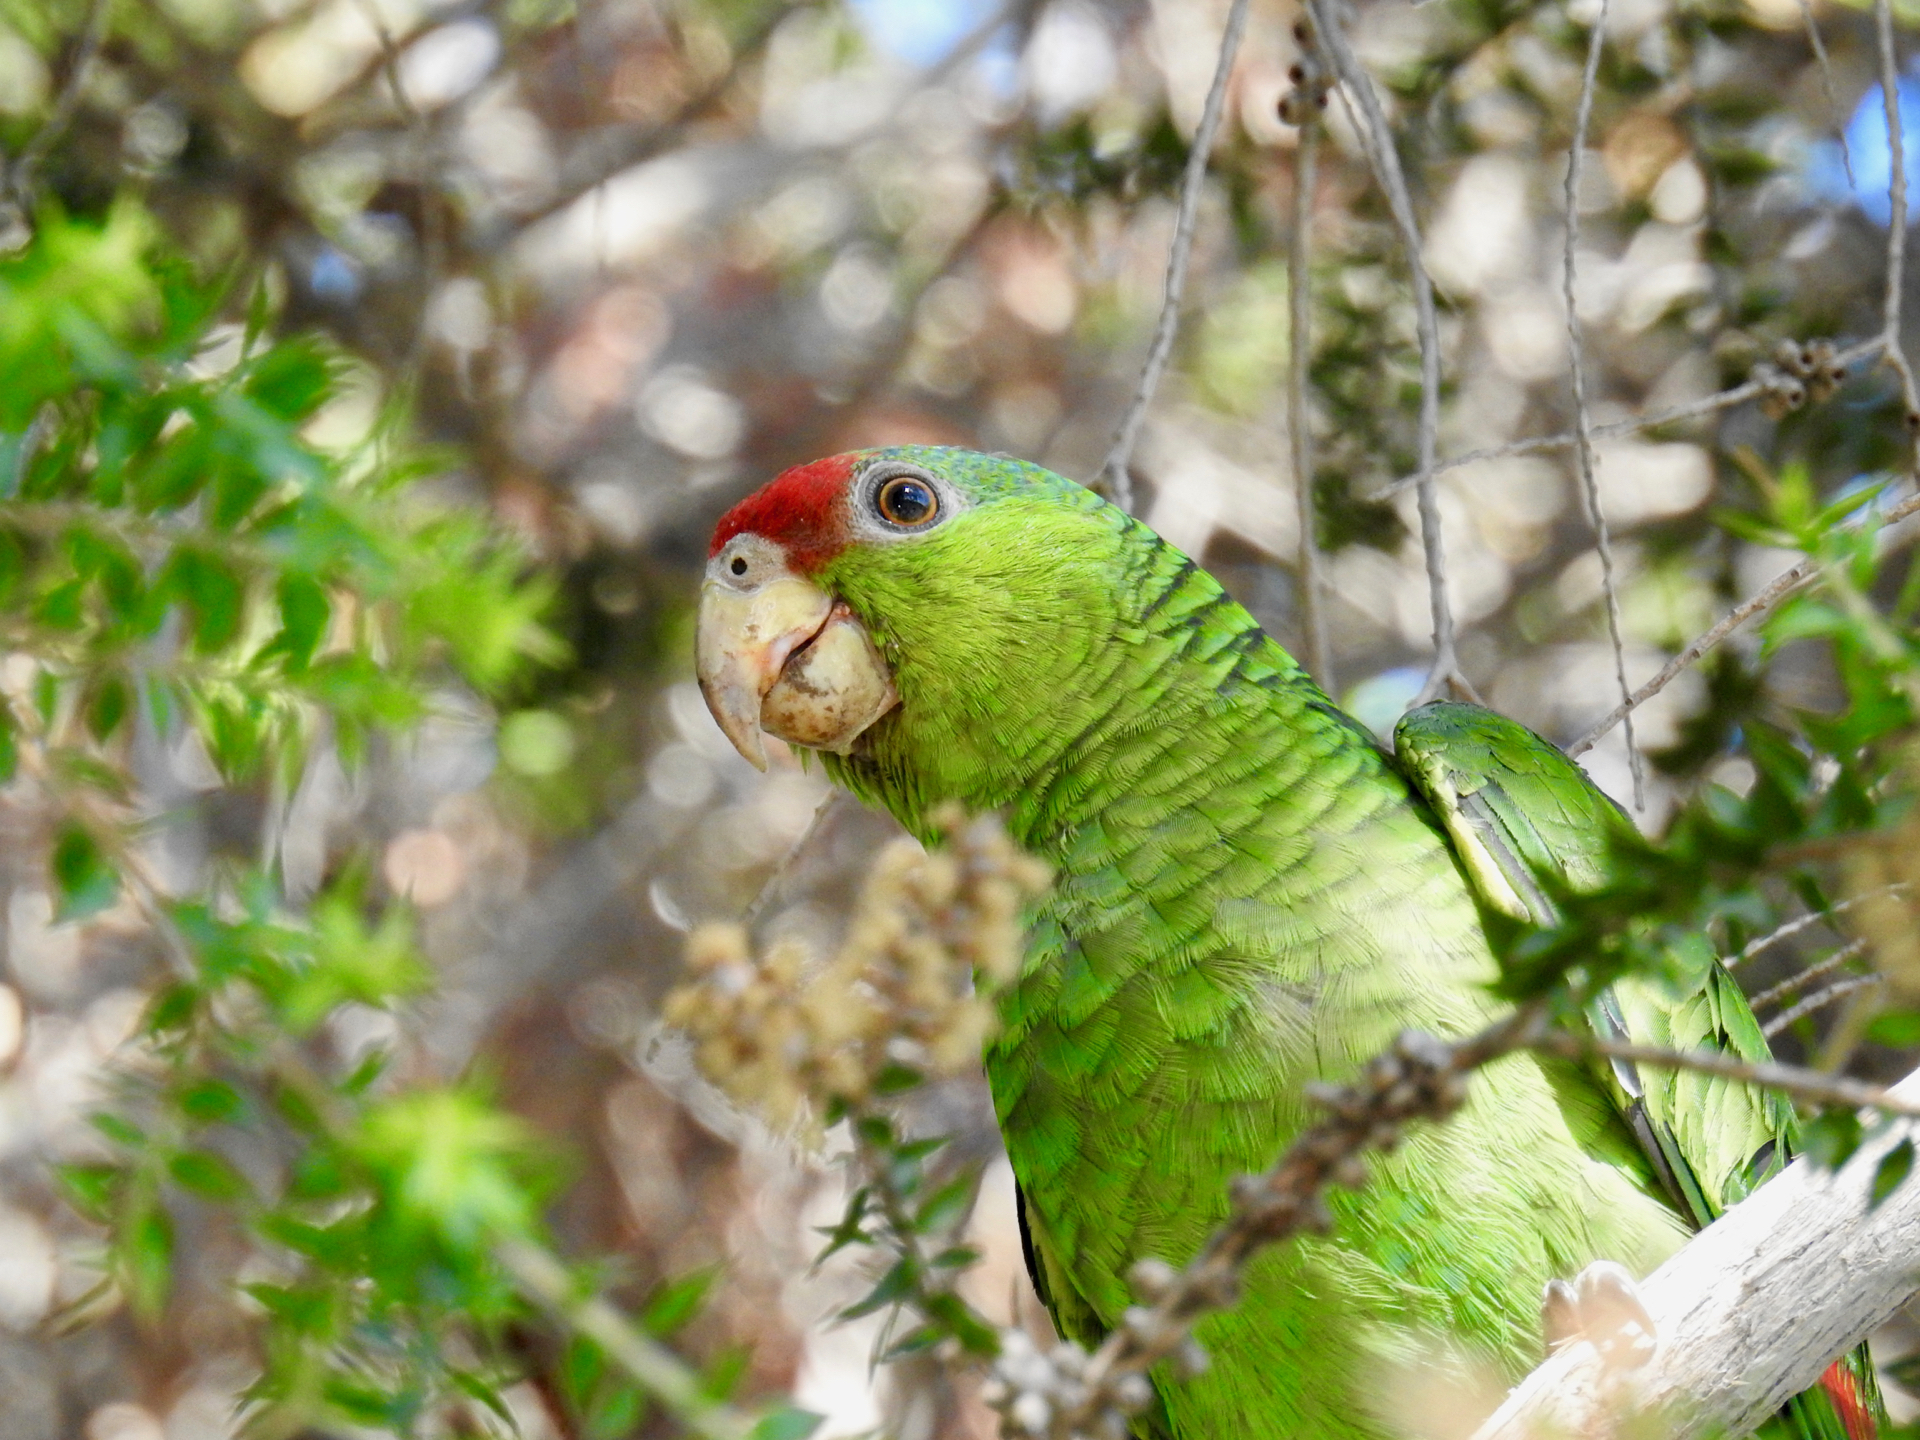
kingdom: Animalia
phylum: Chordata
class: Aves
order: Psittaciformes
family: Psittacidae
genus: Amazona
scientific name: Amazona viridigenalis
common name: Red-crowned amazon
